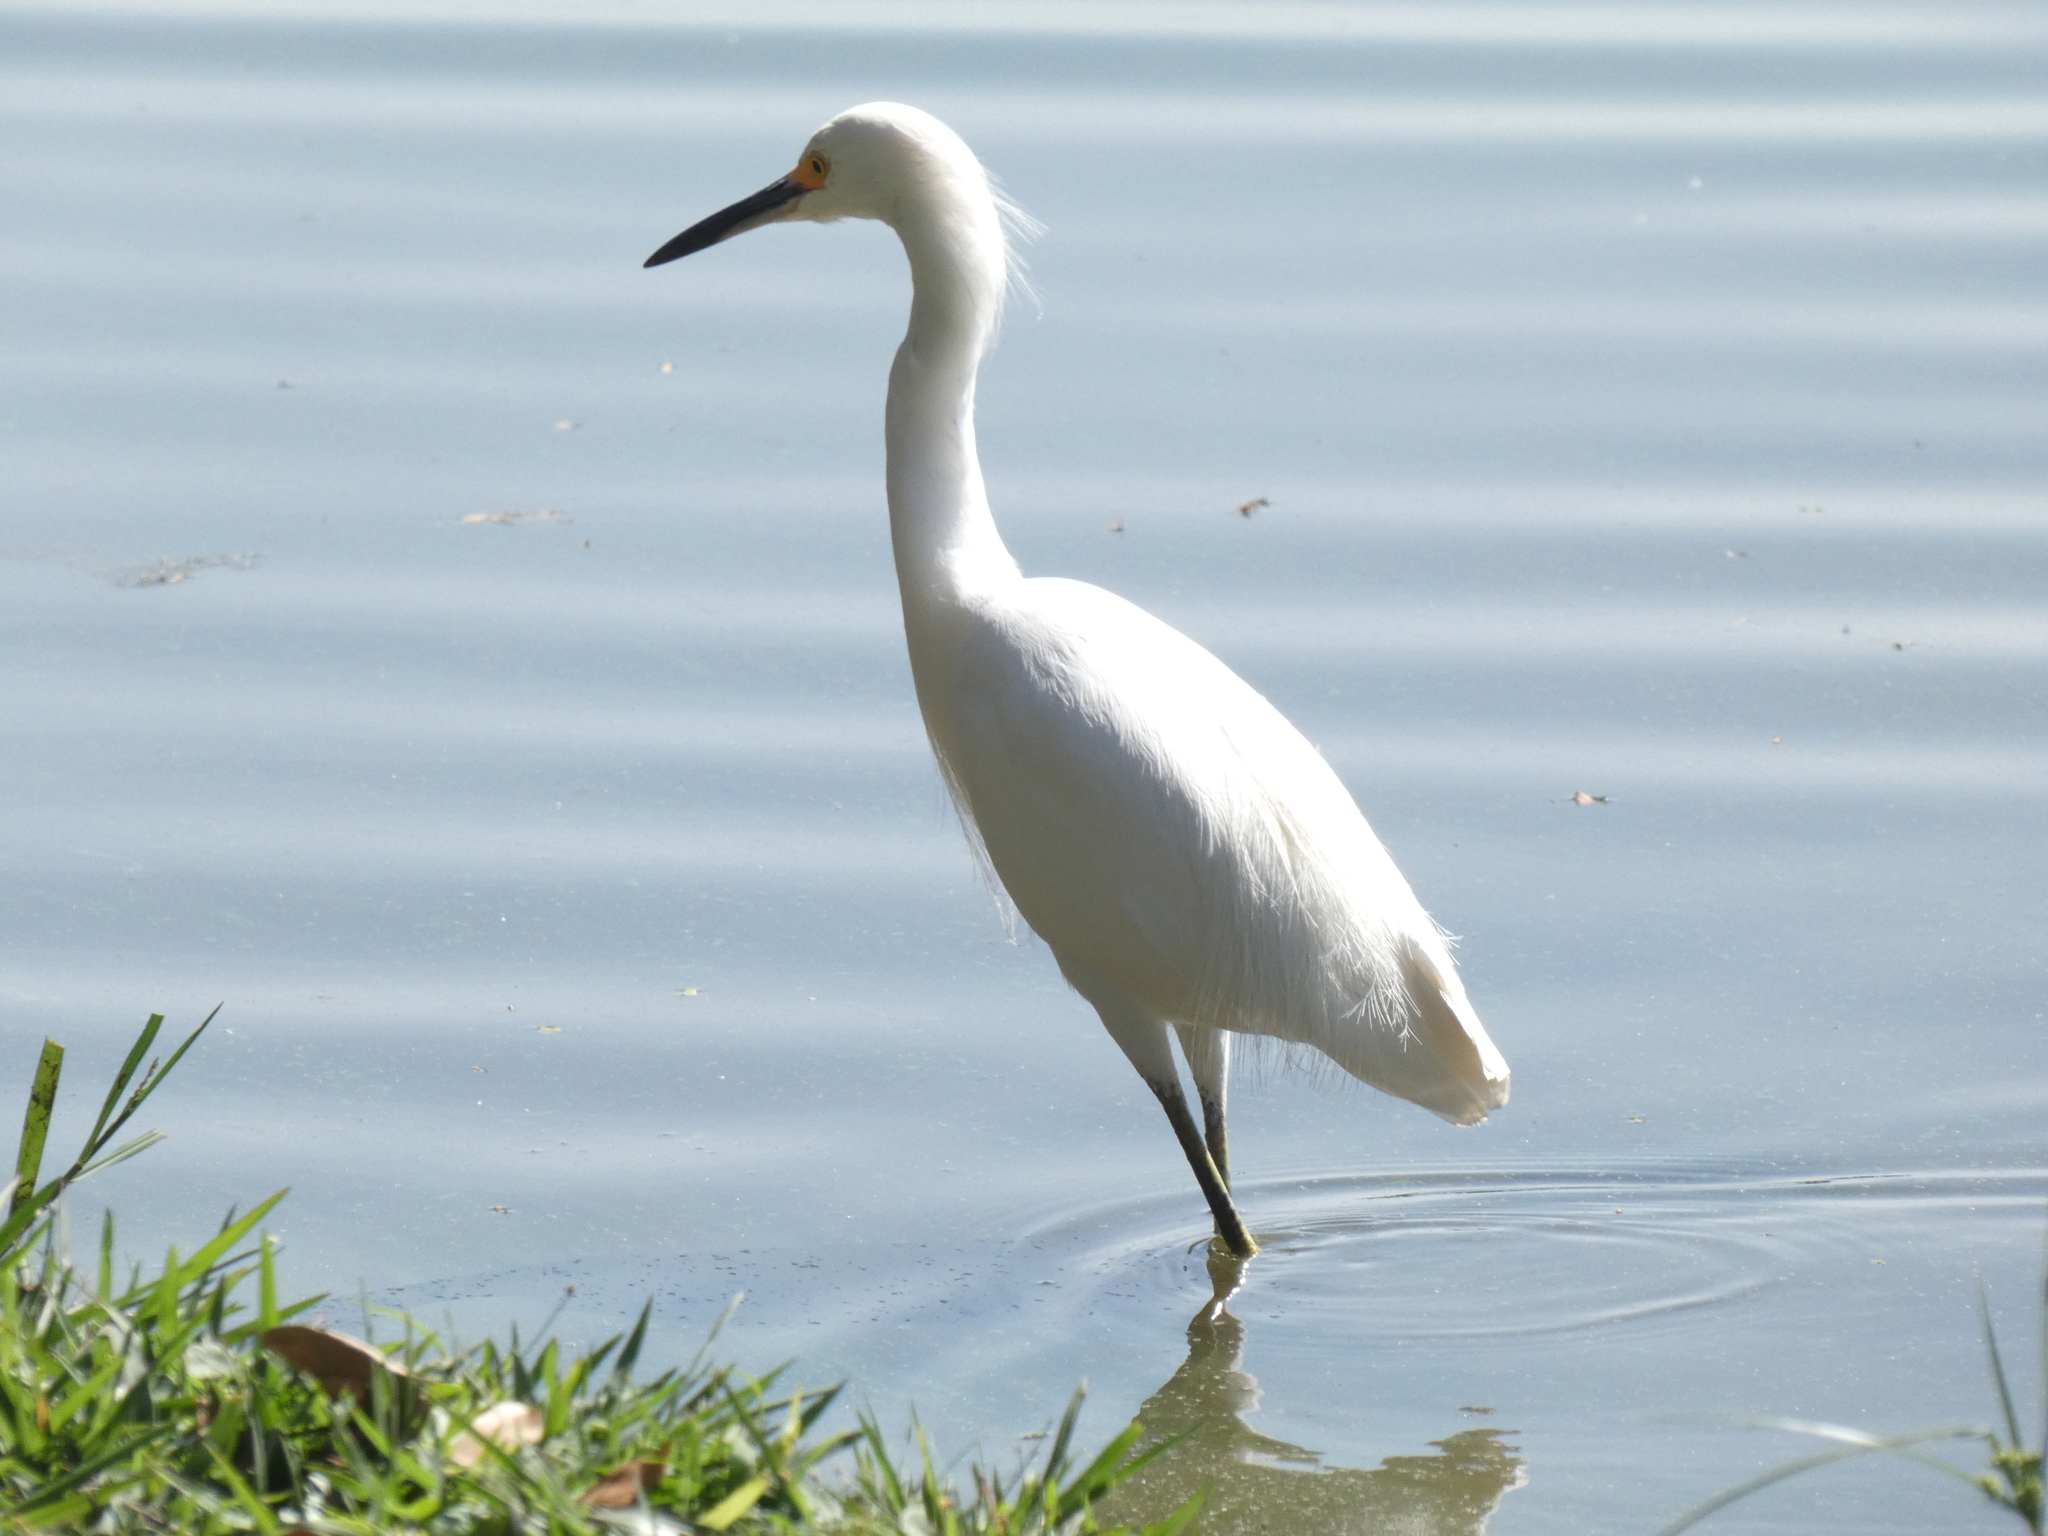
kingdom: Animalia
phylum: Chordata
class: Aves
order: Pelecaniformes
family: Ardeidae
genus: Egretta
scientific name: Egretta thula
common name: Snowy egret
